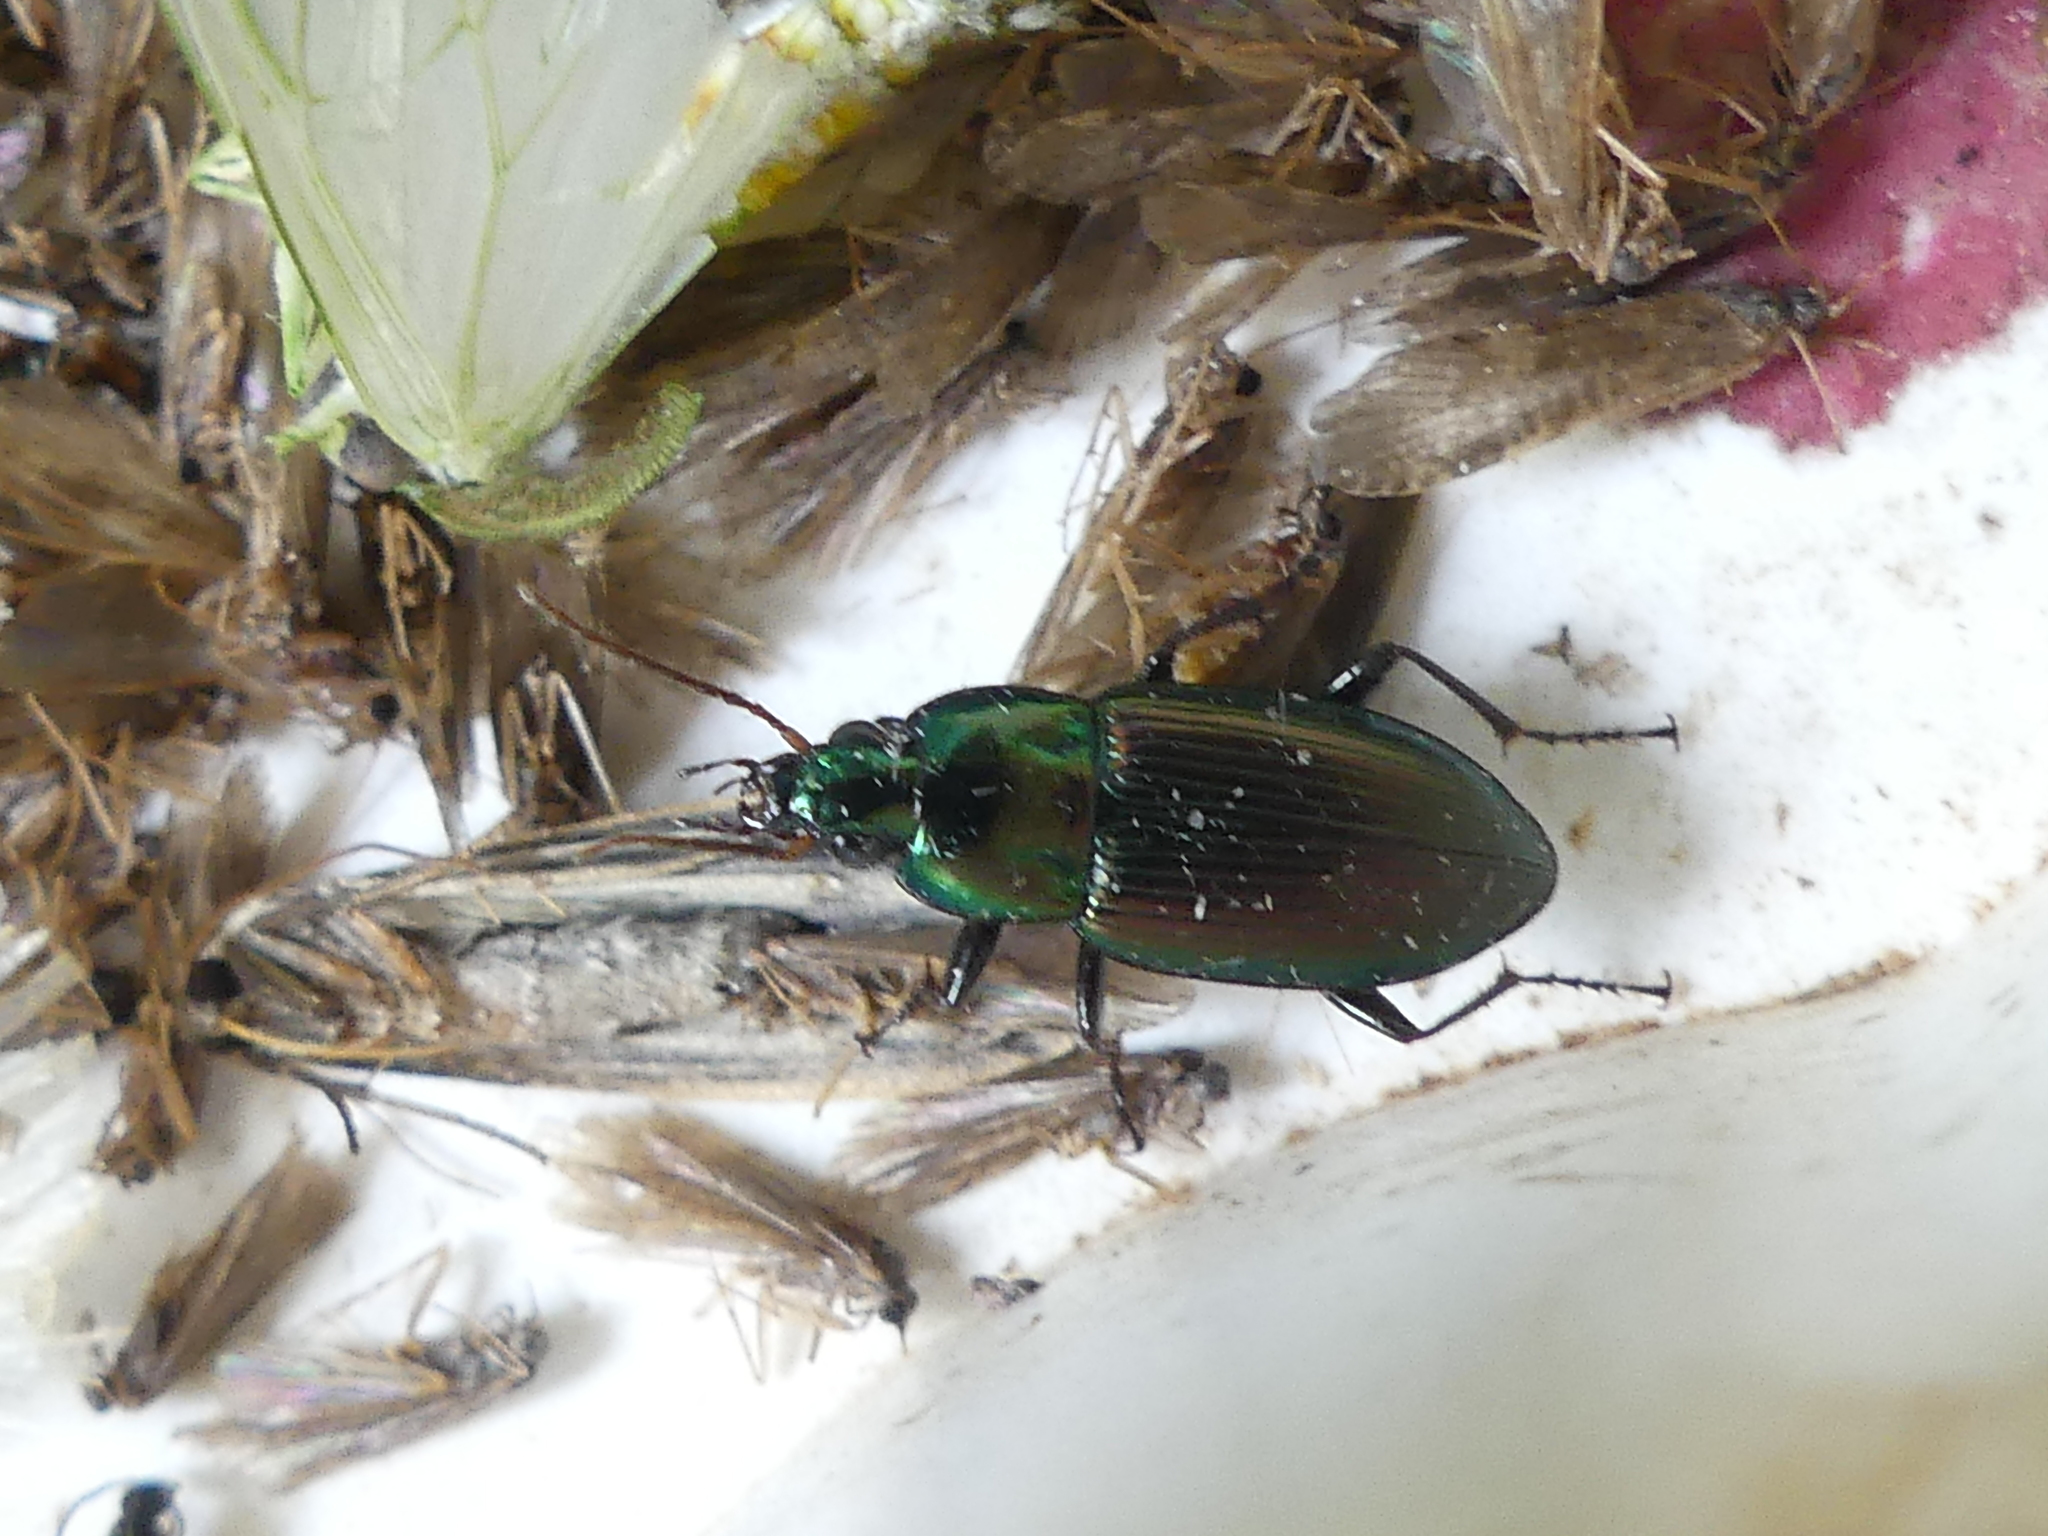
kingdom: Animalia
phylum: Arthropoda
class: Insecta
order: Coleoptera
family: Carabidae
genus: Poecilus
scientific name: Poecilus chalcites
